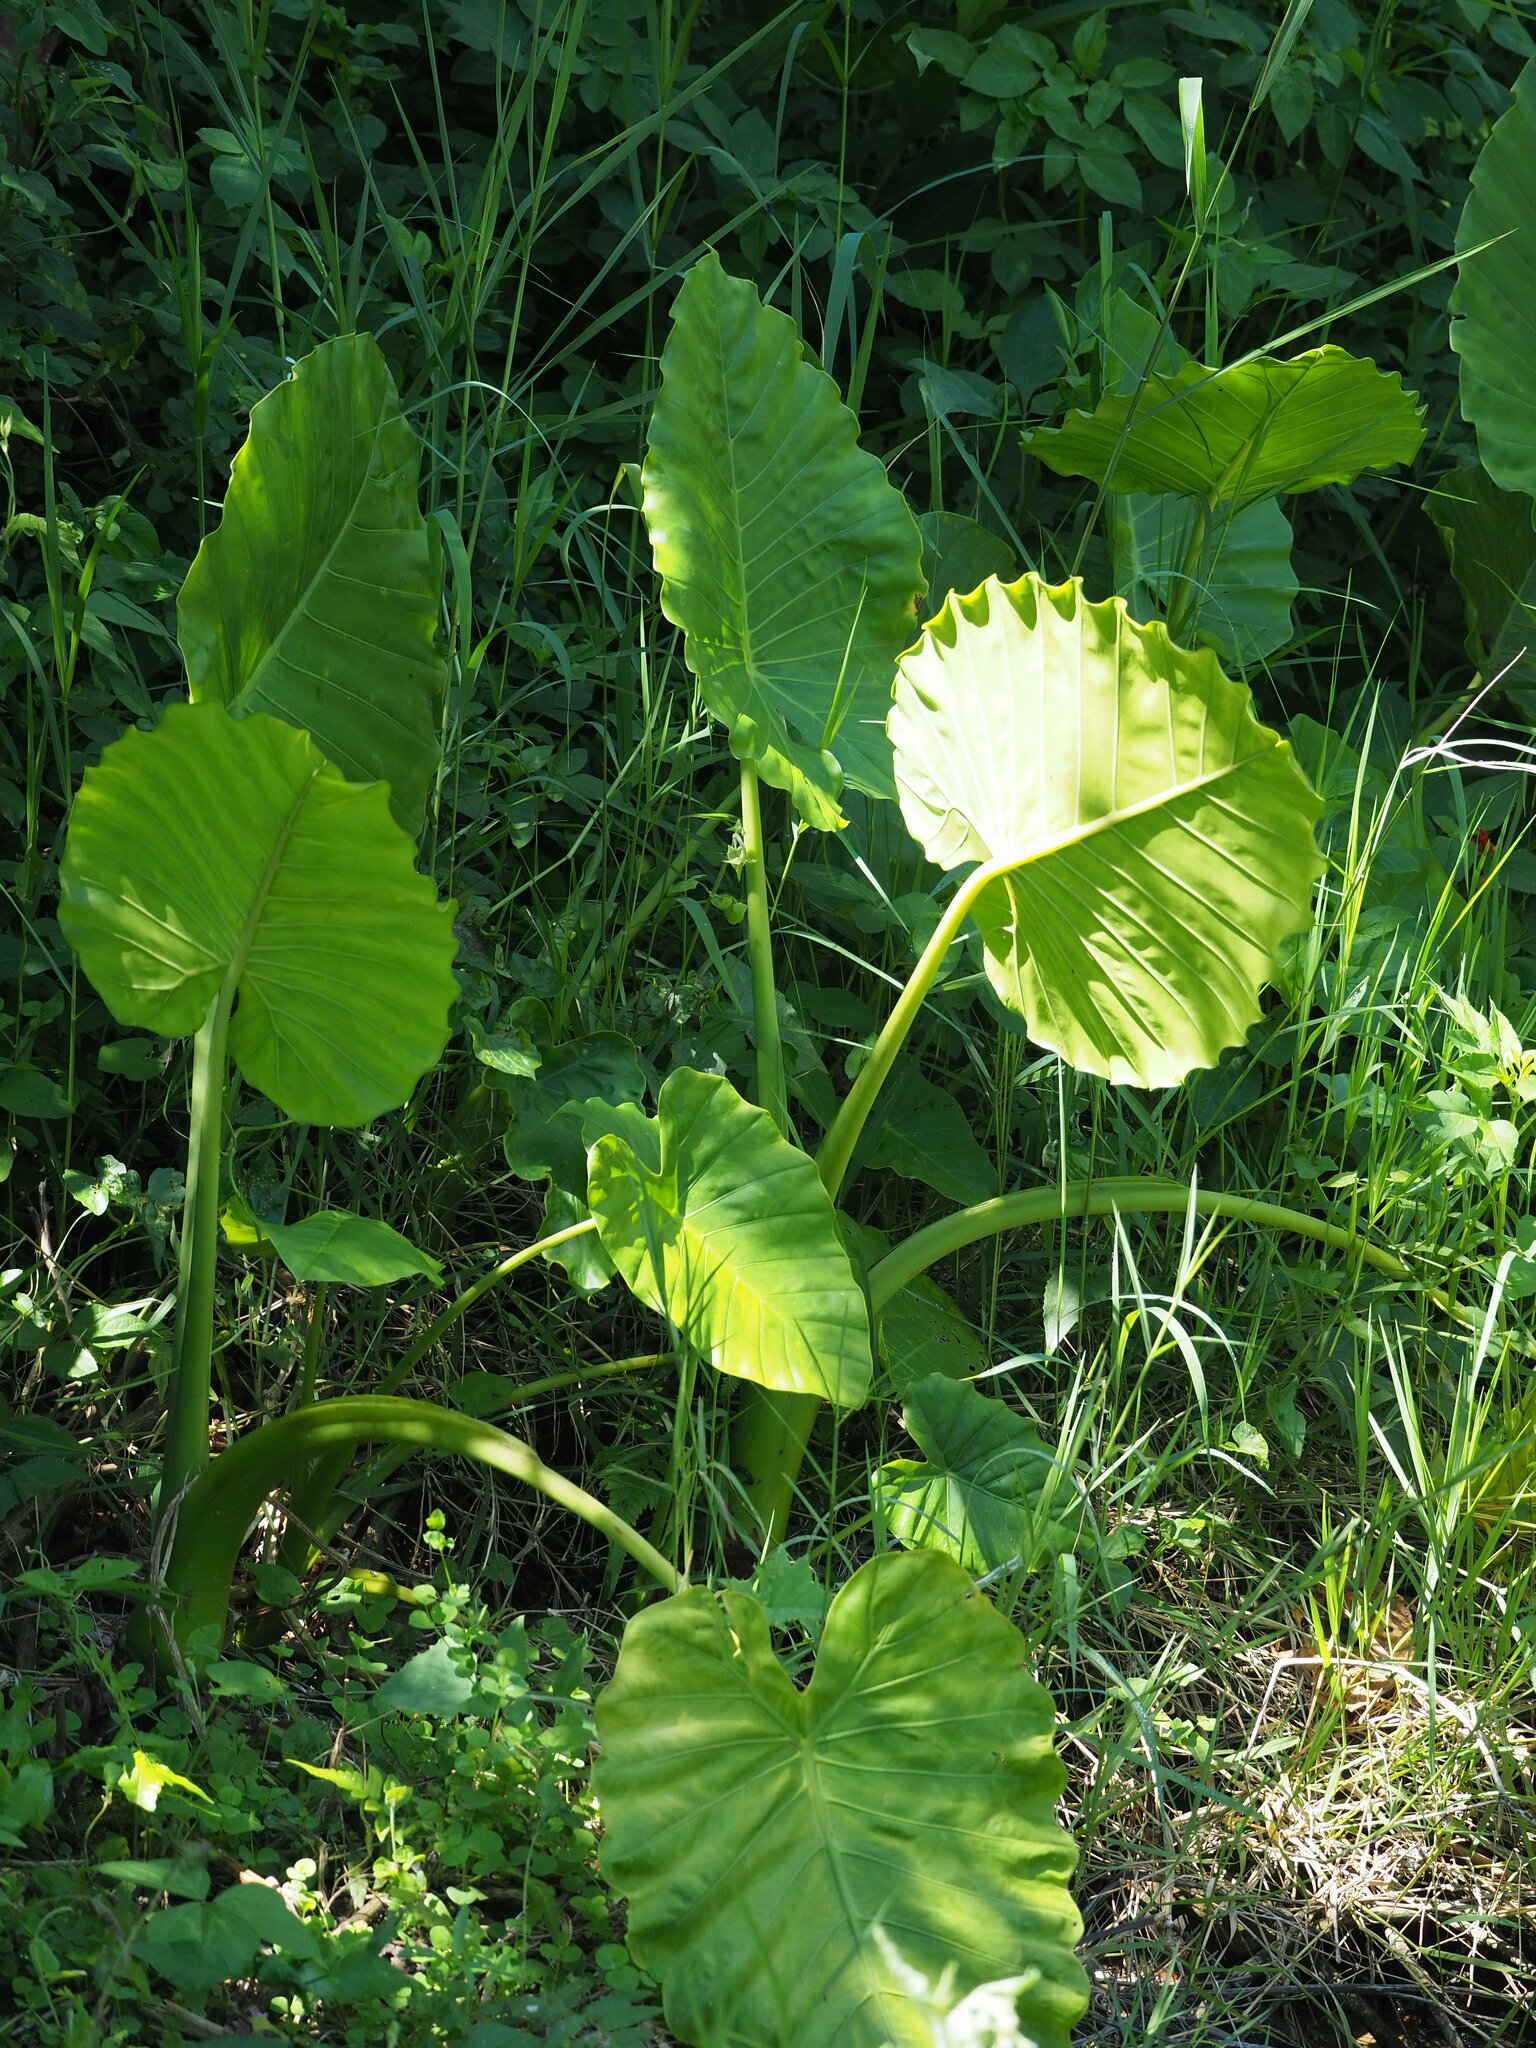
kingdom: Plantae
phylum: Tracheophyta
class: Liliopsida
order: Alismatales
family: Araceae
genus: Alocasia
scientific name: Alocasia odora
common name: Asian taro
